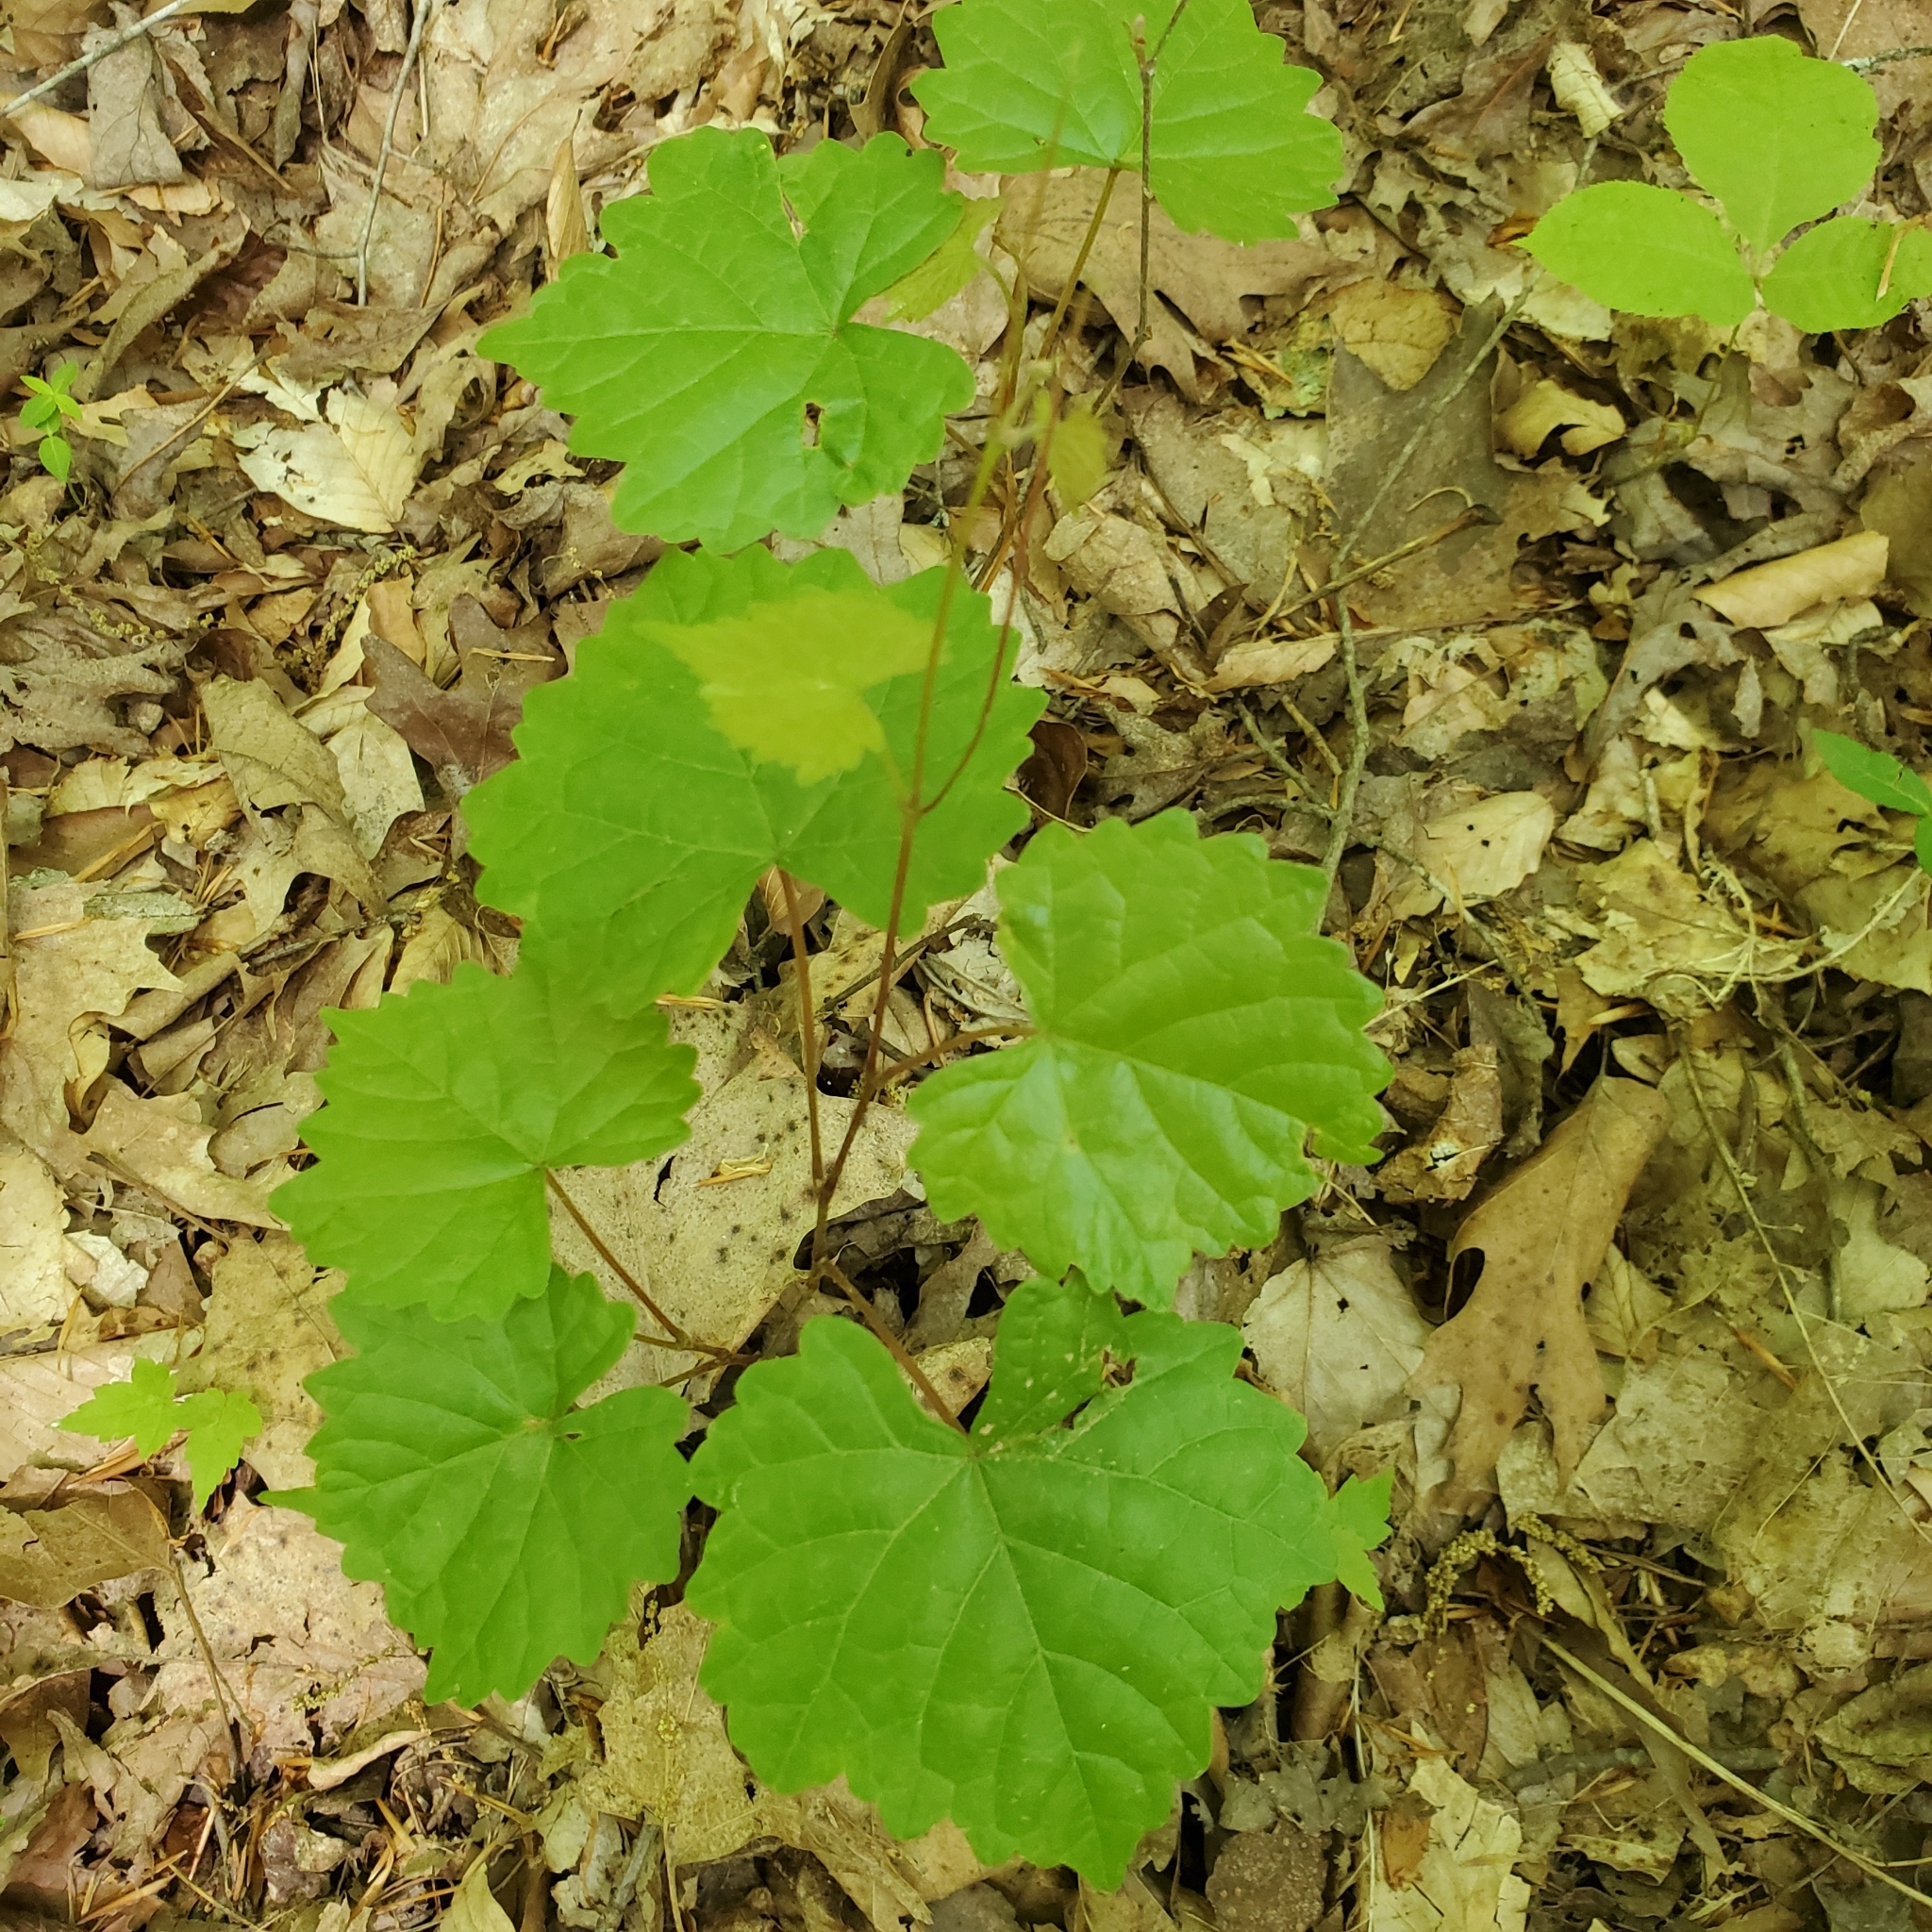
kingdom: Plantae
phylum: Tracheophyta
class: Magnoliopsida
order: Vitales
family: Vitaceae
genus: Vitis
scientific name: Vitis rotundifolia
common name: Muscadine grape
